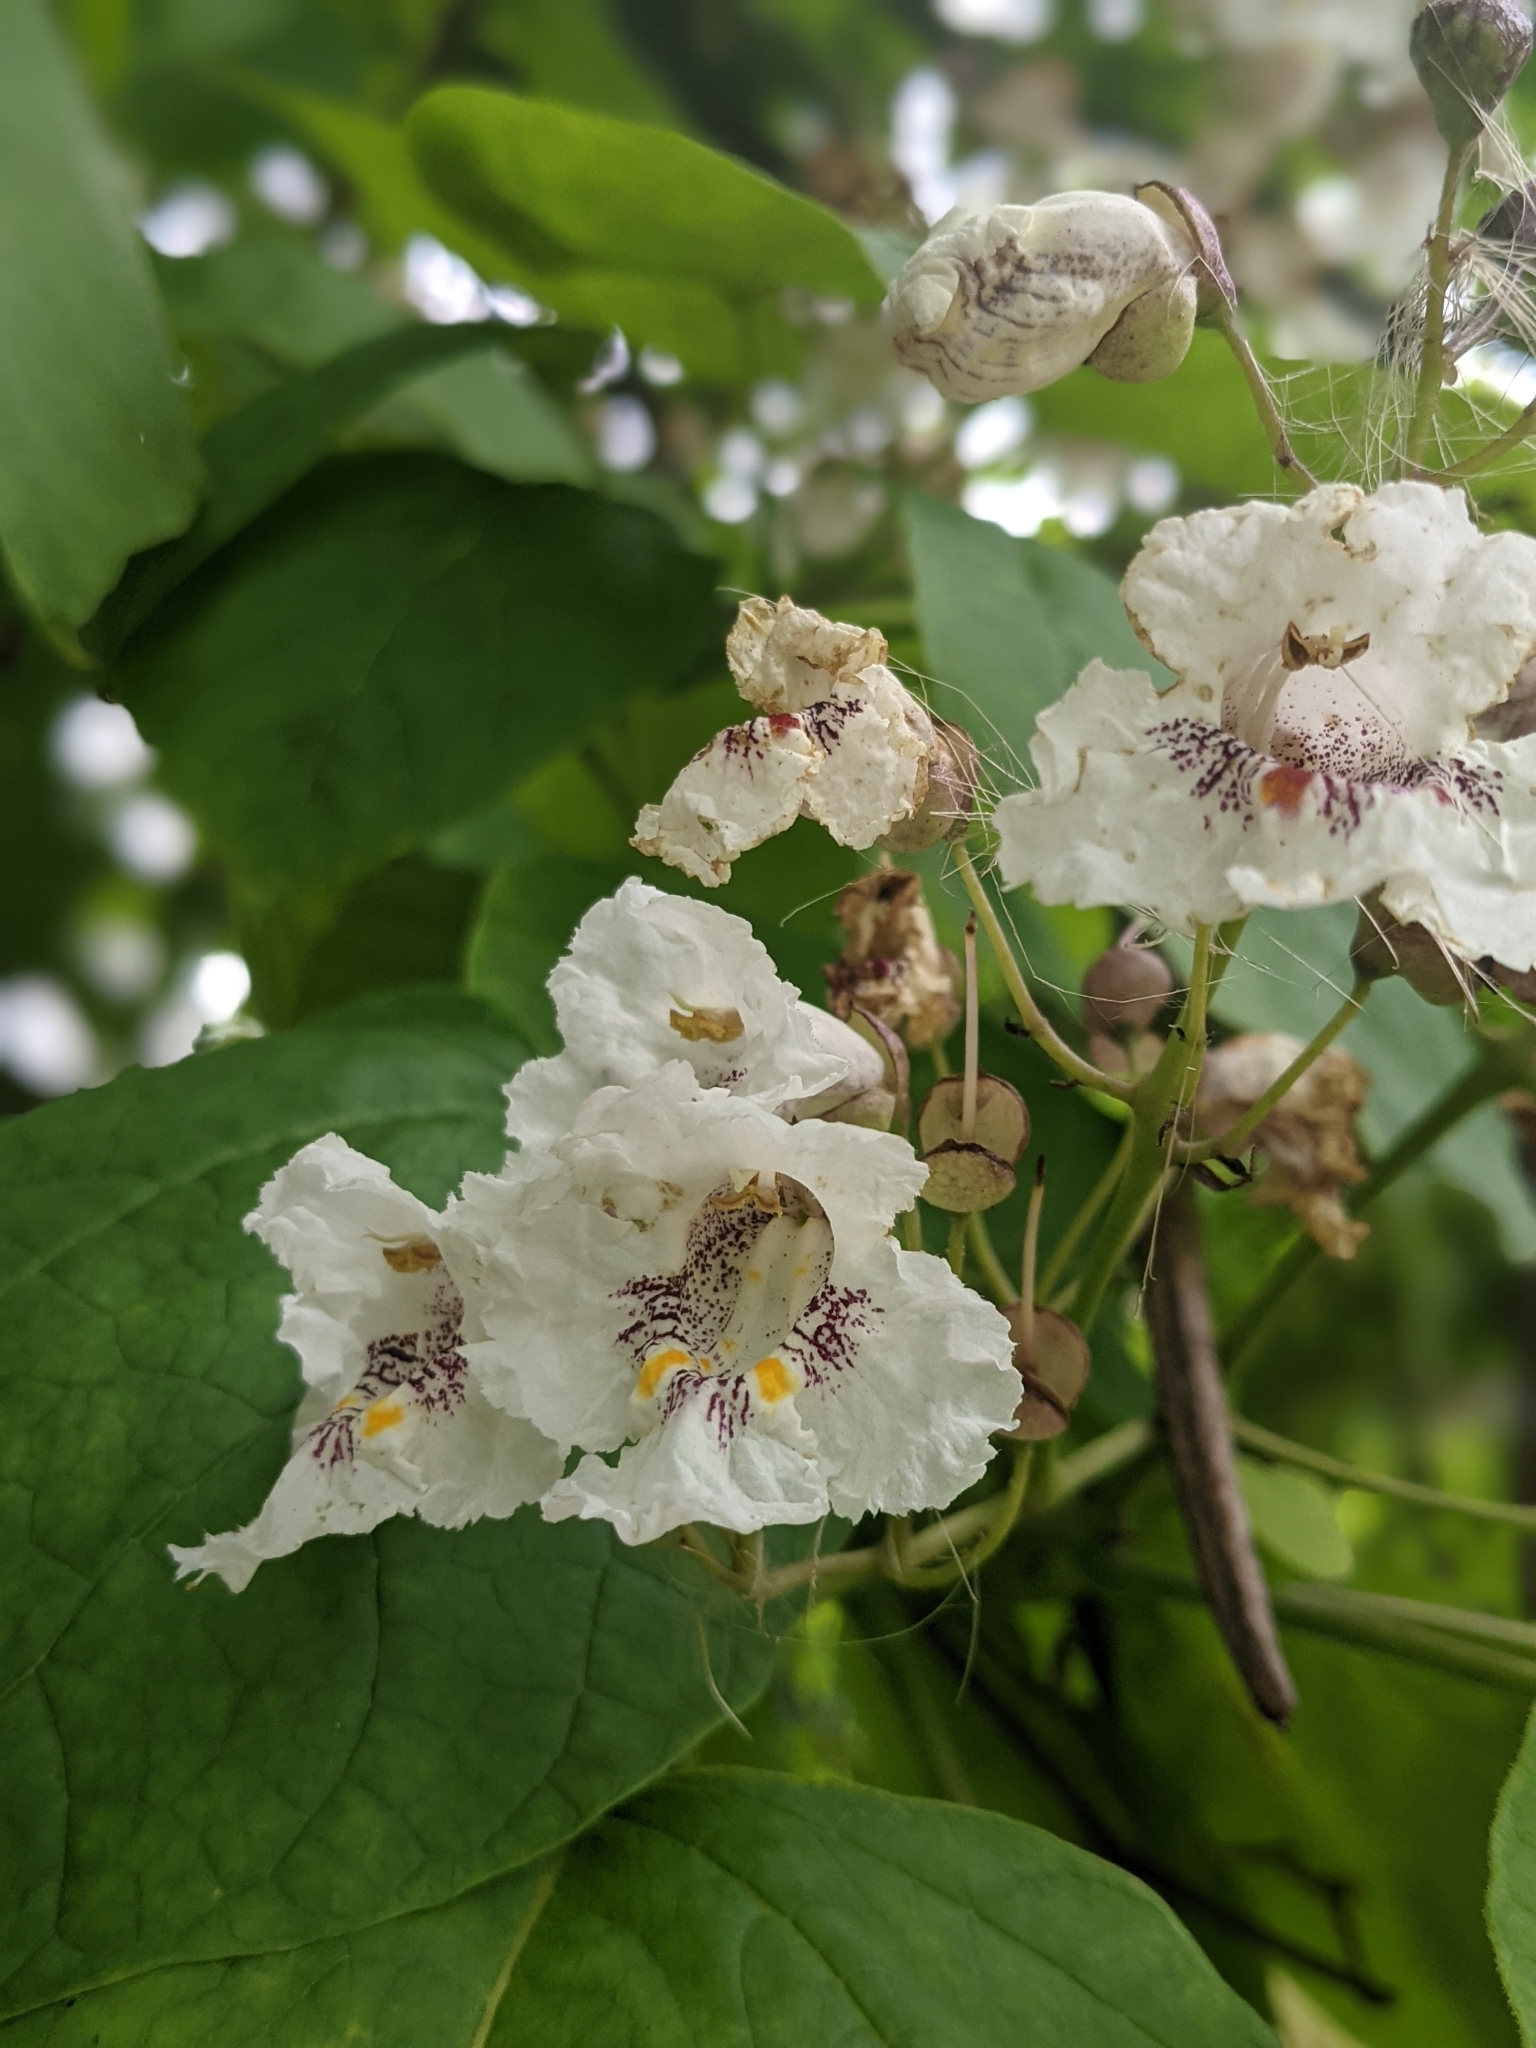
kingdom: Plantae
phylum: Tracheophyta
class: Magnoliopsida
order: Lamiales
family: Bignoniaceae
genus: Catalpa
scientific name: Catalpa bignonioides
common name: Southern catalpa
